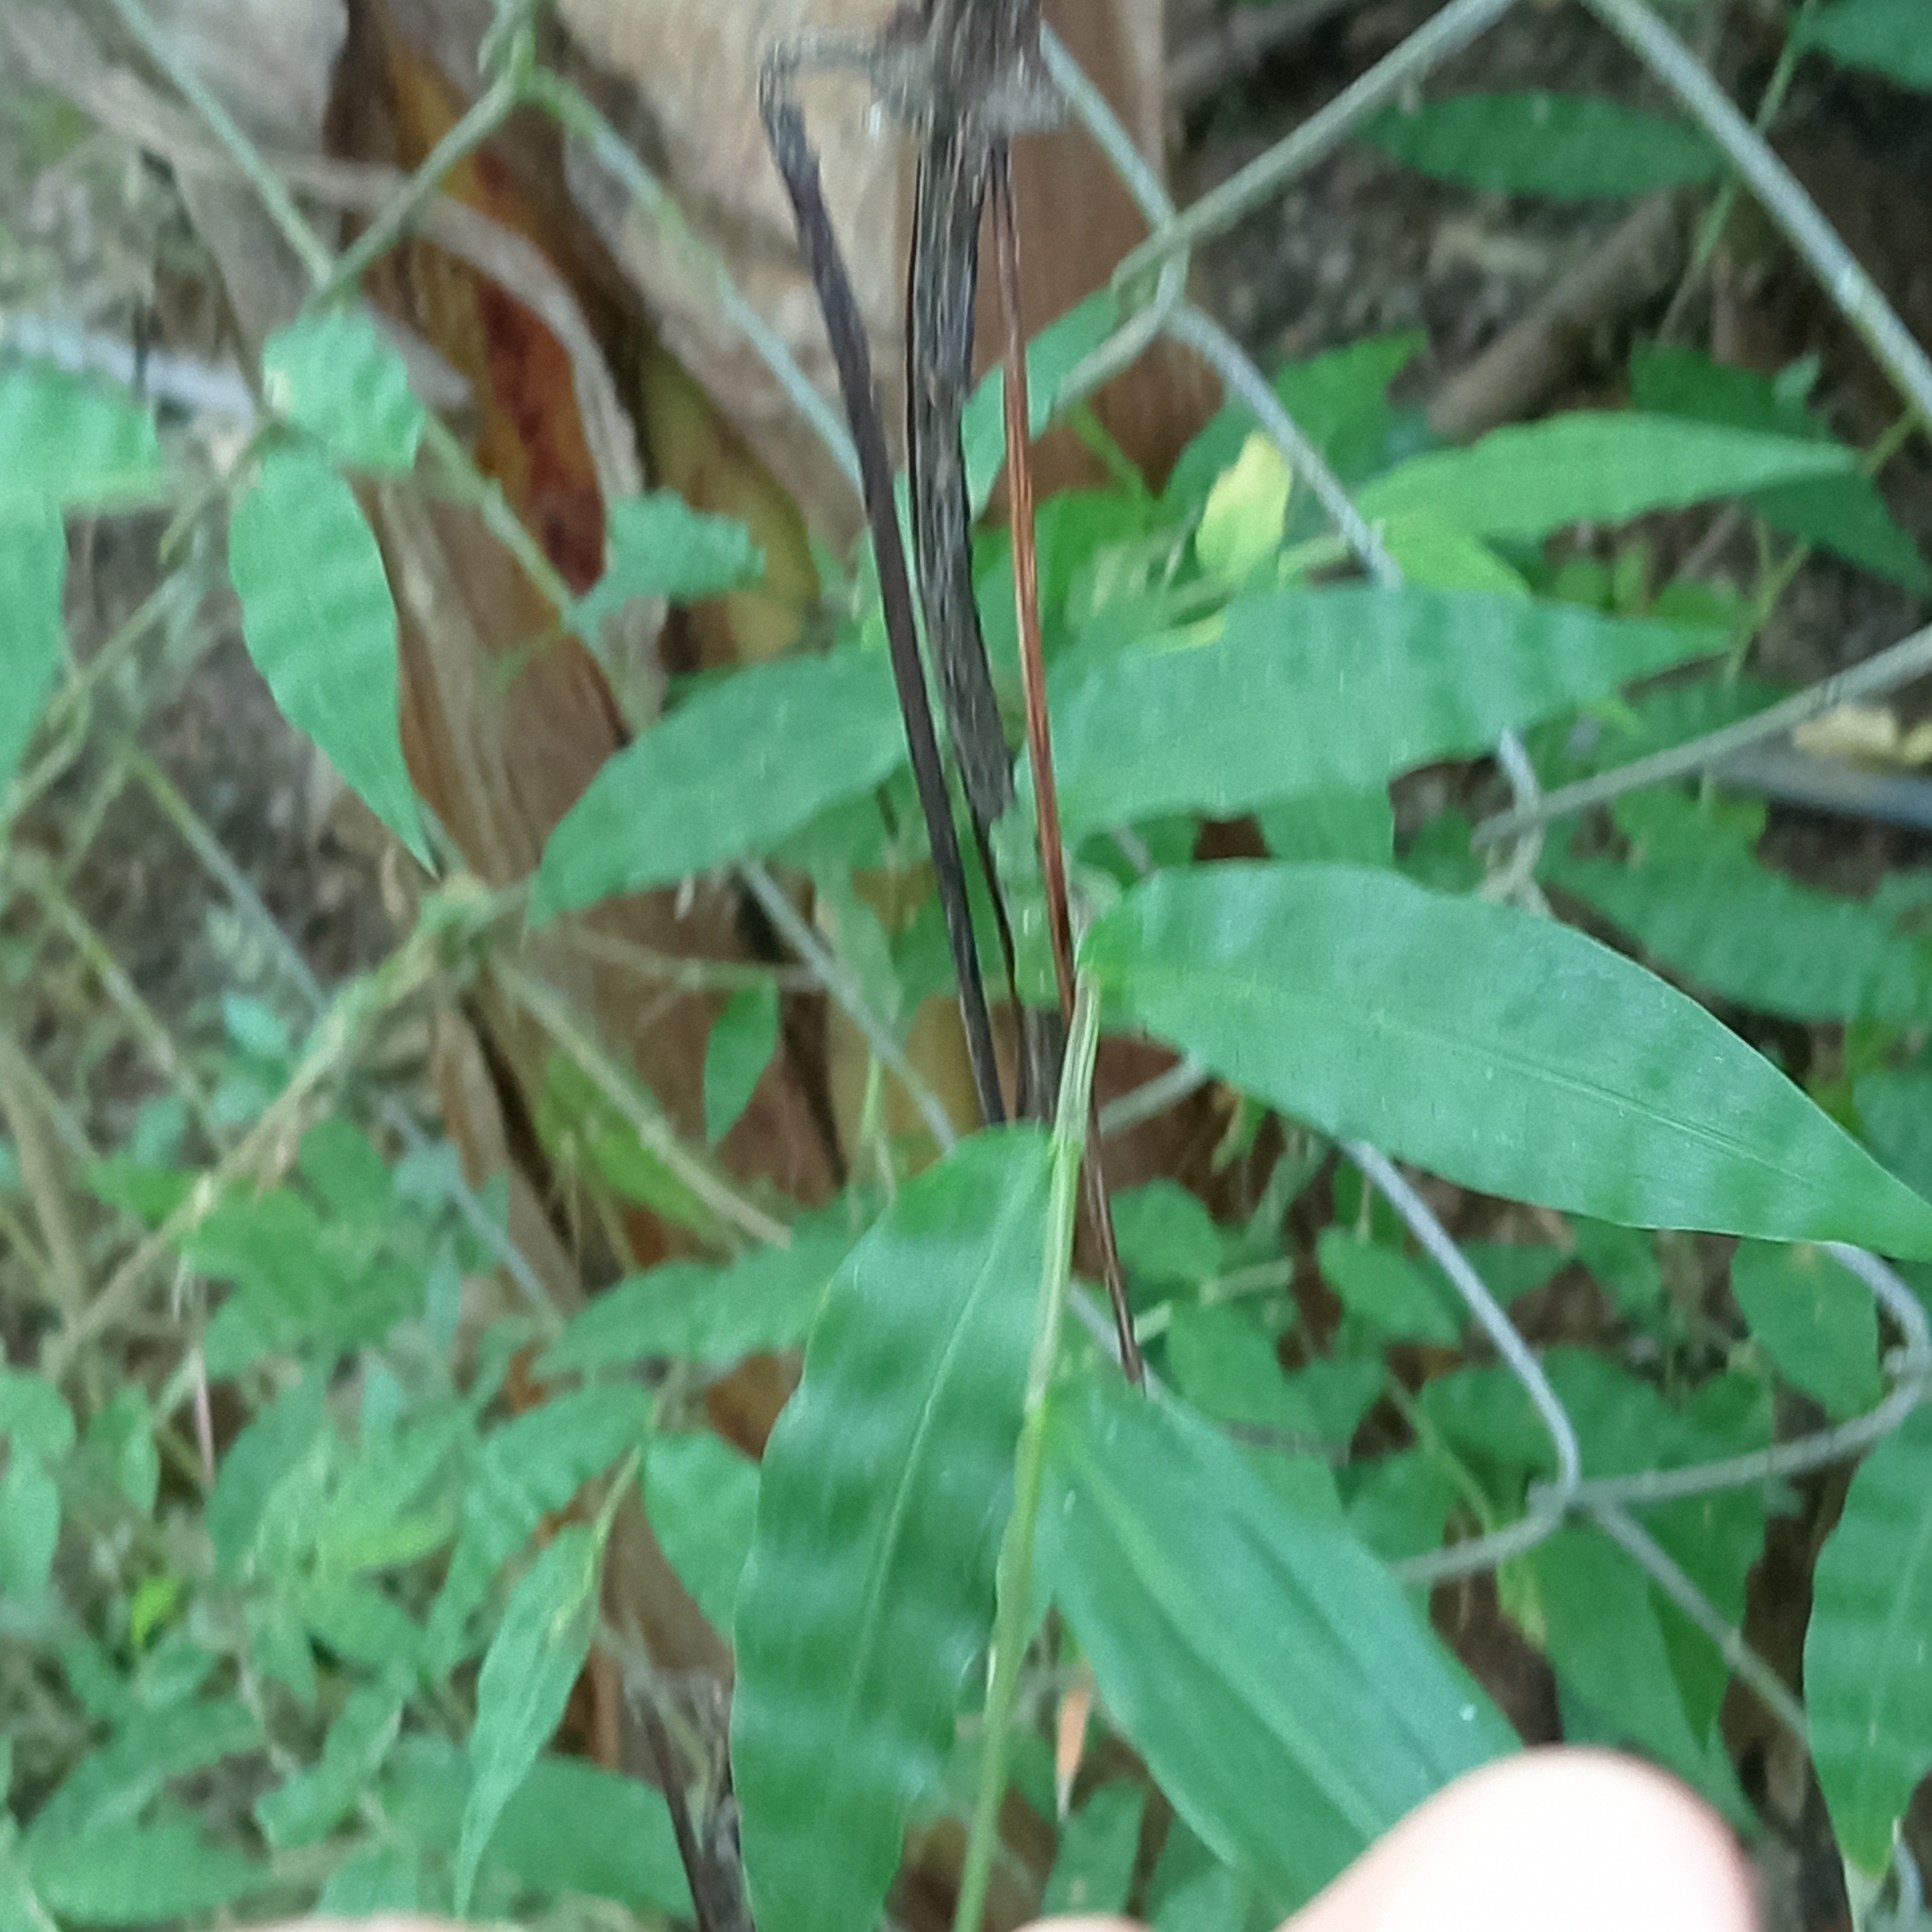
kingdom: Plantae
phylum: Tracheophyta
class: Liliopsida
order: Poales
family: Poaceae
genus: Oplismenus
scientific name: Oplismenus burmanni
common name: Burmann's basketgrass
